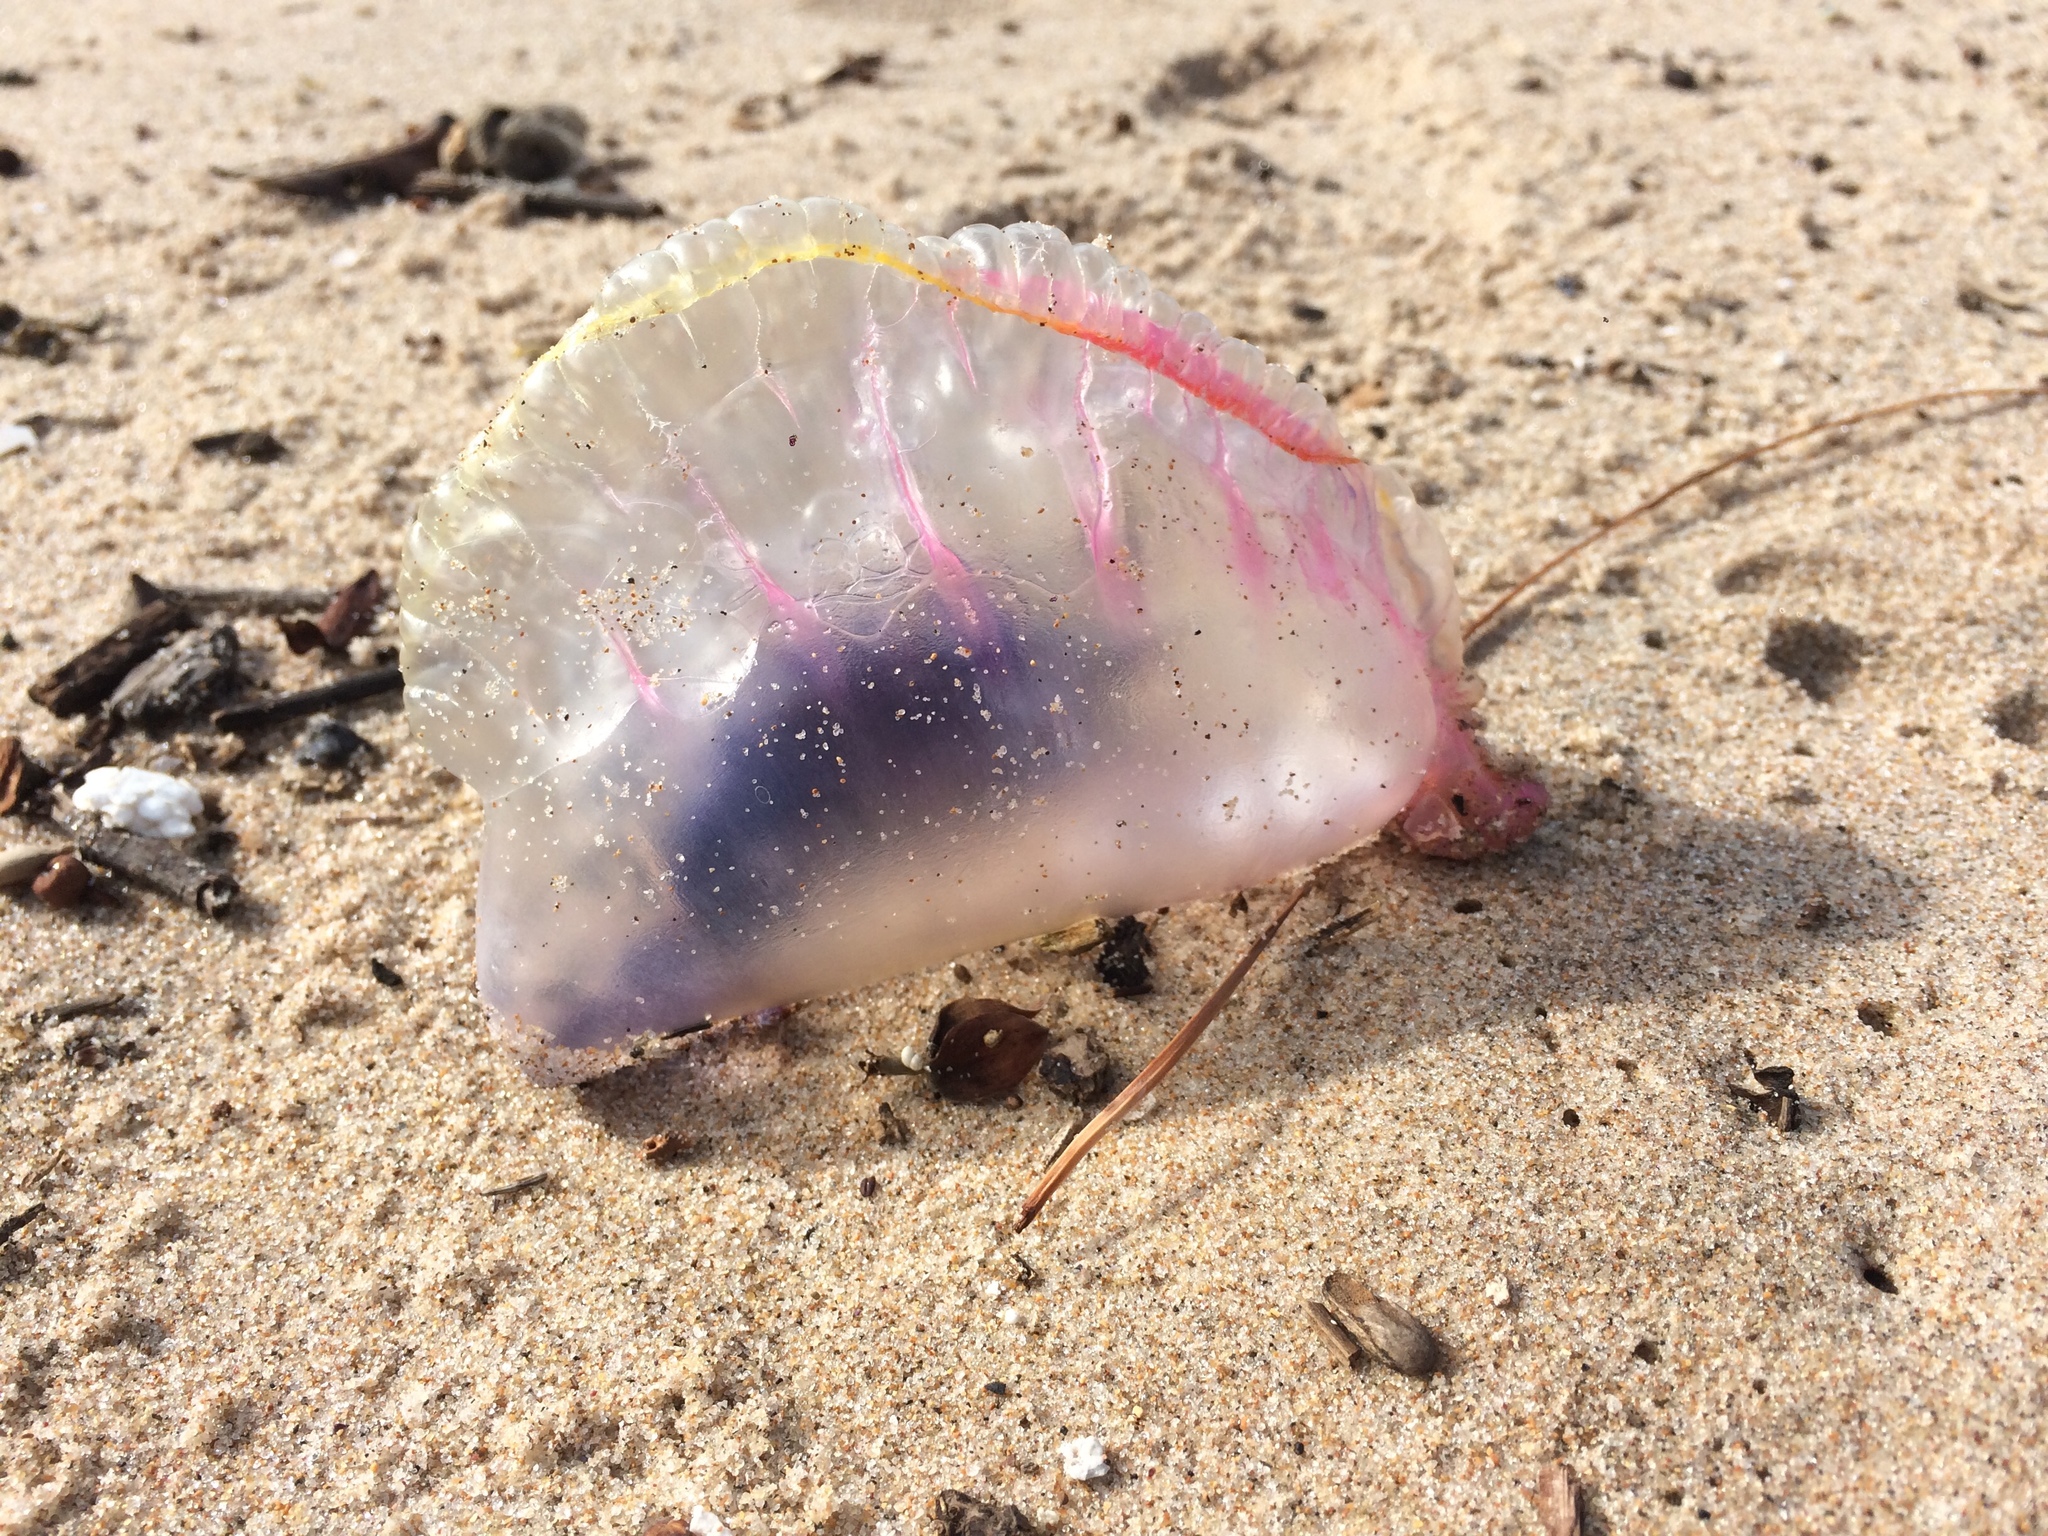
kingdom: Animalia
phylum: Cnidaria
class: Hydrozoa
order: Siphonophorae
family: Physaliidae
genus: Physalia
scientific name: Physalia physalis
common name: Portuguese man-of-war
